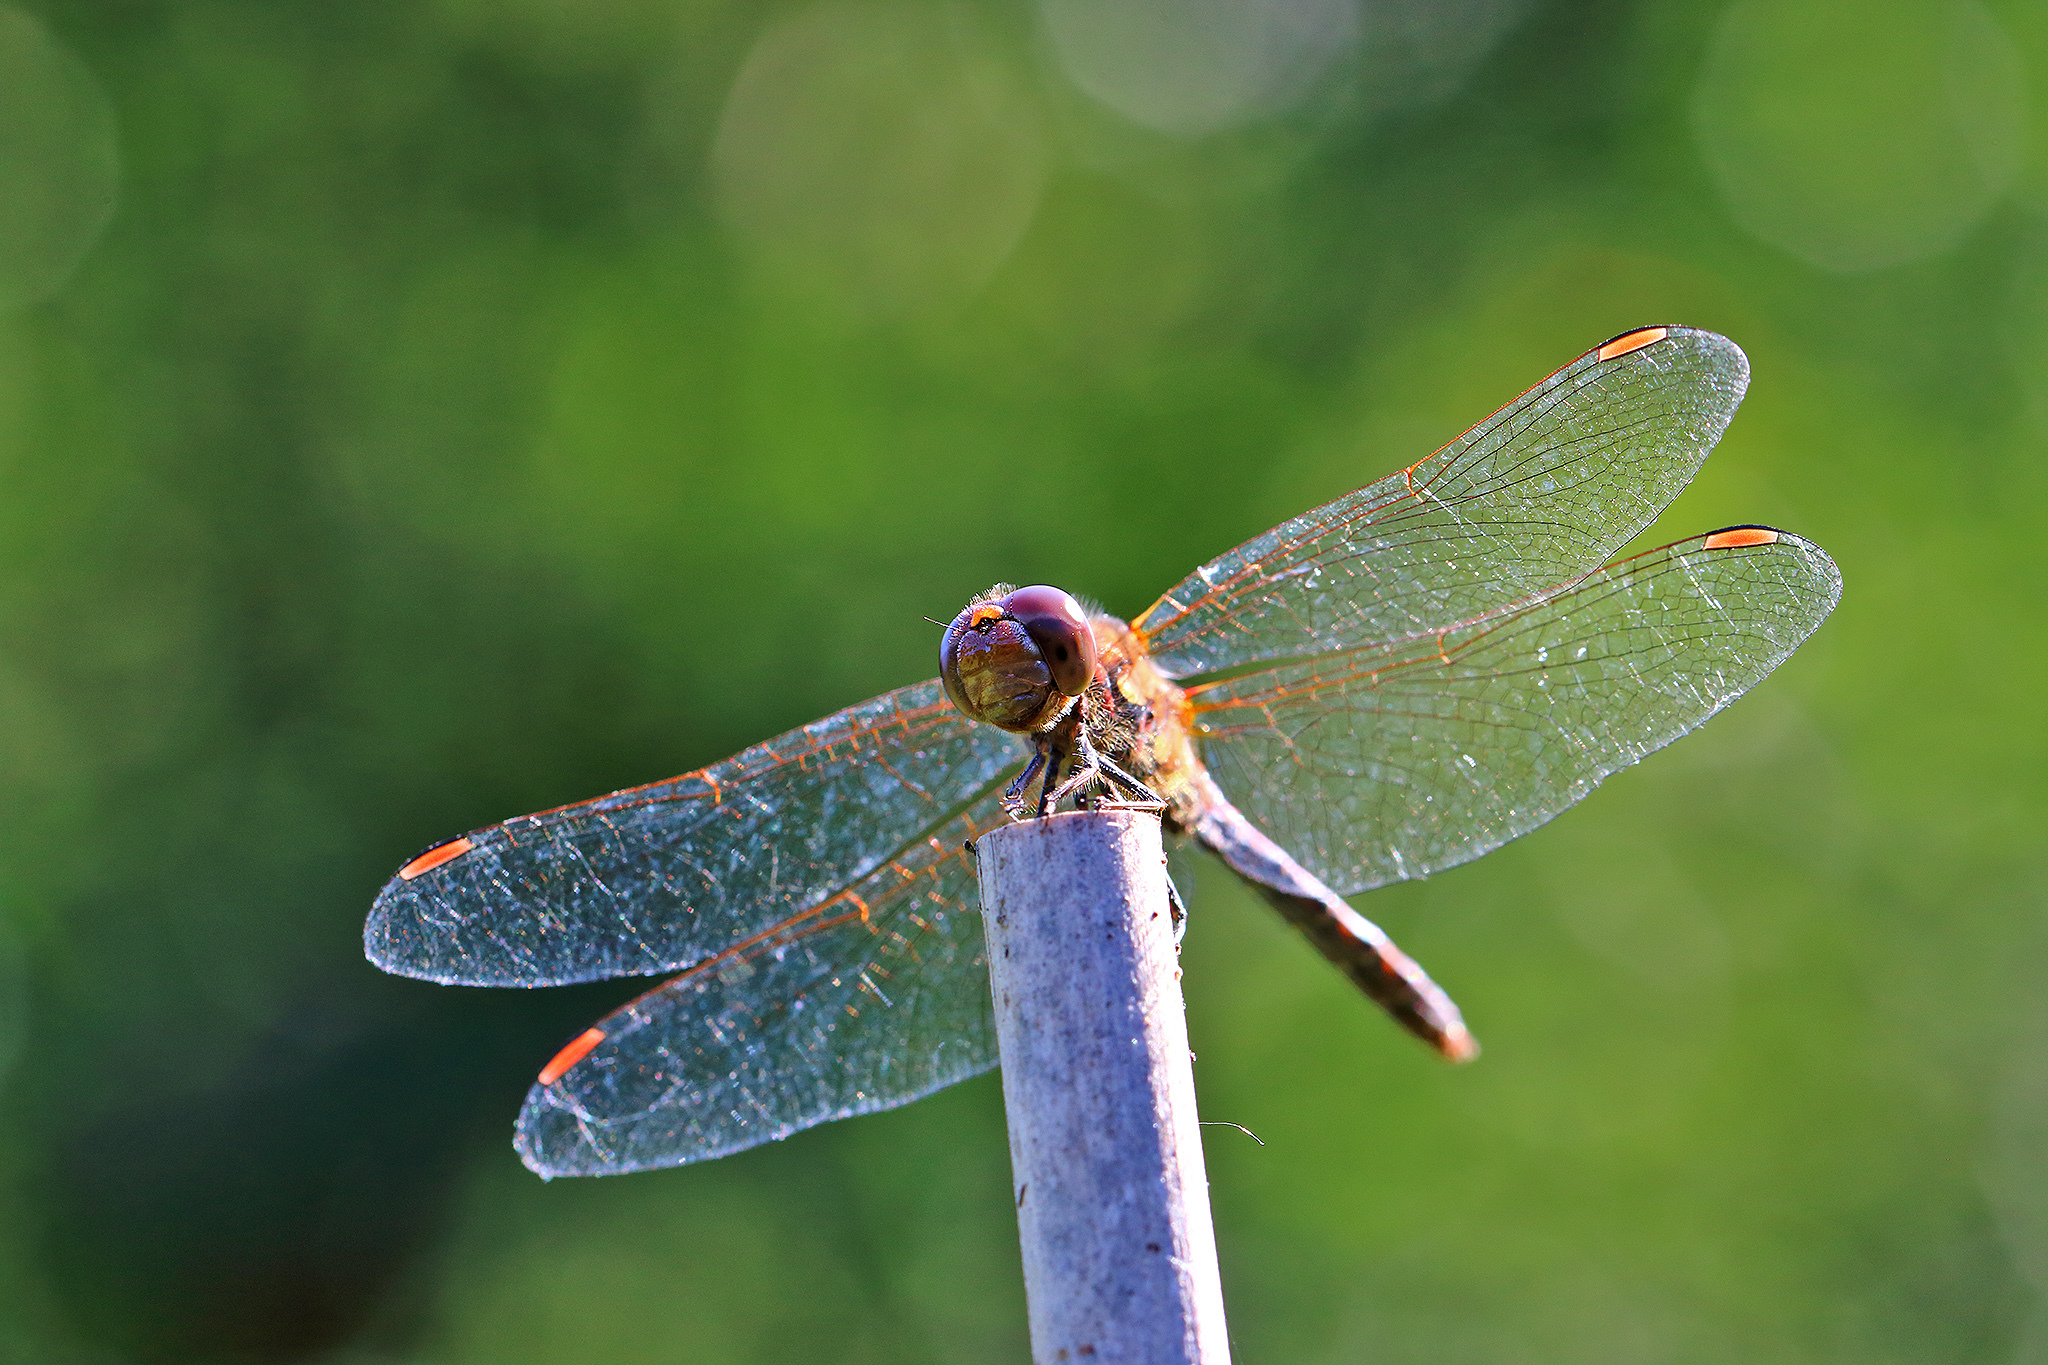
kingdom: Animalia
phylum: Arthropoda
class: Insecta
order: Odonata
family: Libellulidae
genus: Sympetrum
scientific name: Sympetrum striolatum
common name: Common darter
